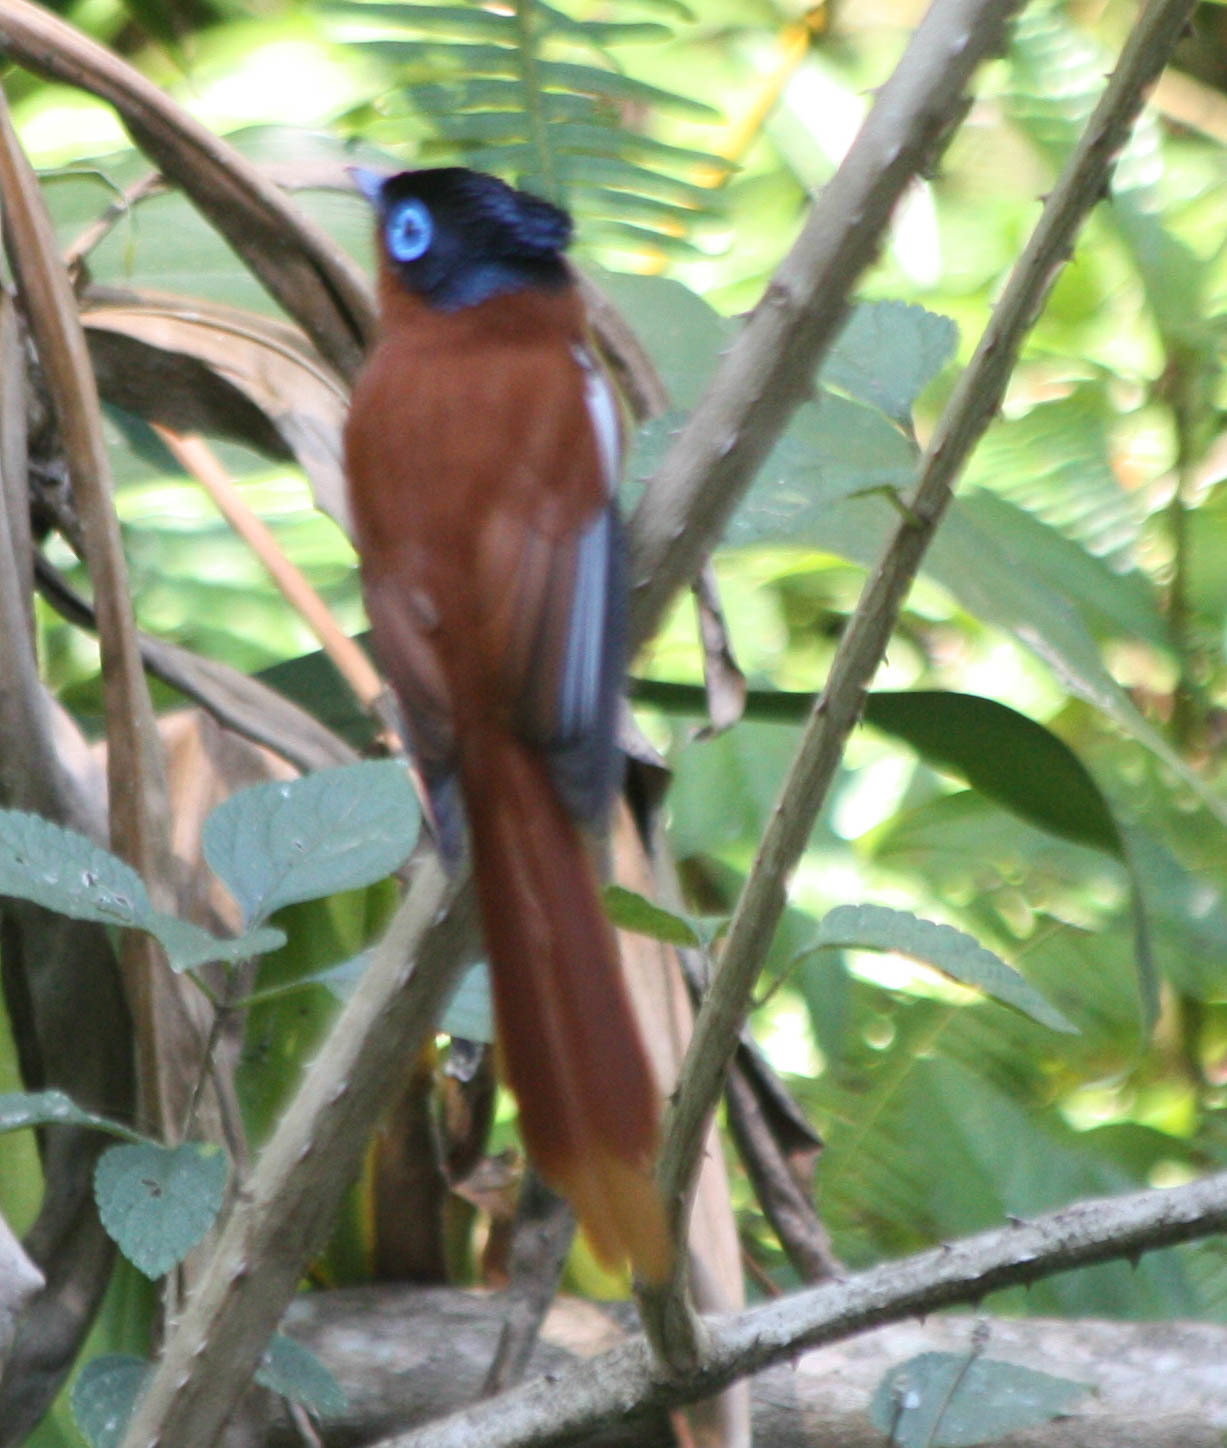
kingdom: Animalia
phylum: Chordata
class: Aves
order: Passeriformes
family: Monarchidae
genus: Terpsiphone
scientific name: Terpsiphone mutata
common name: Malagasy paradise flycatcher
